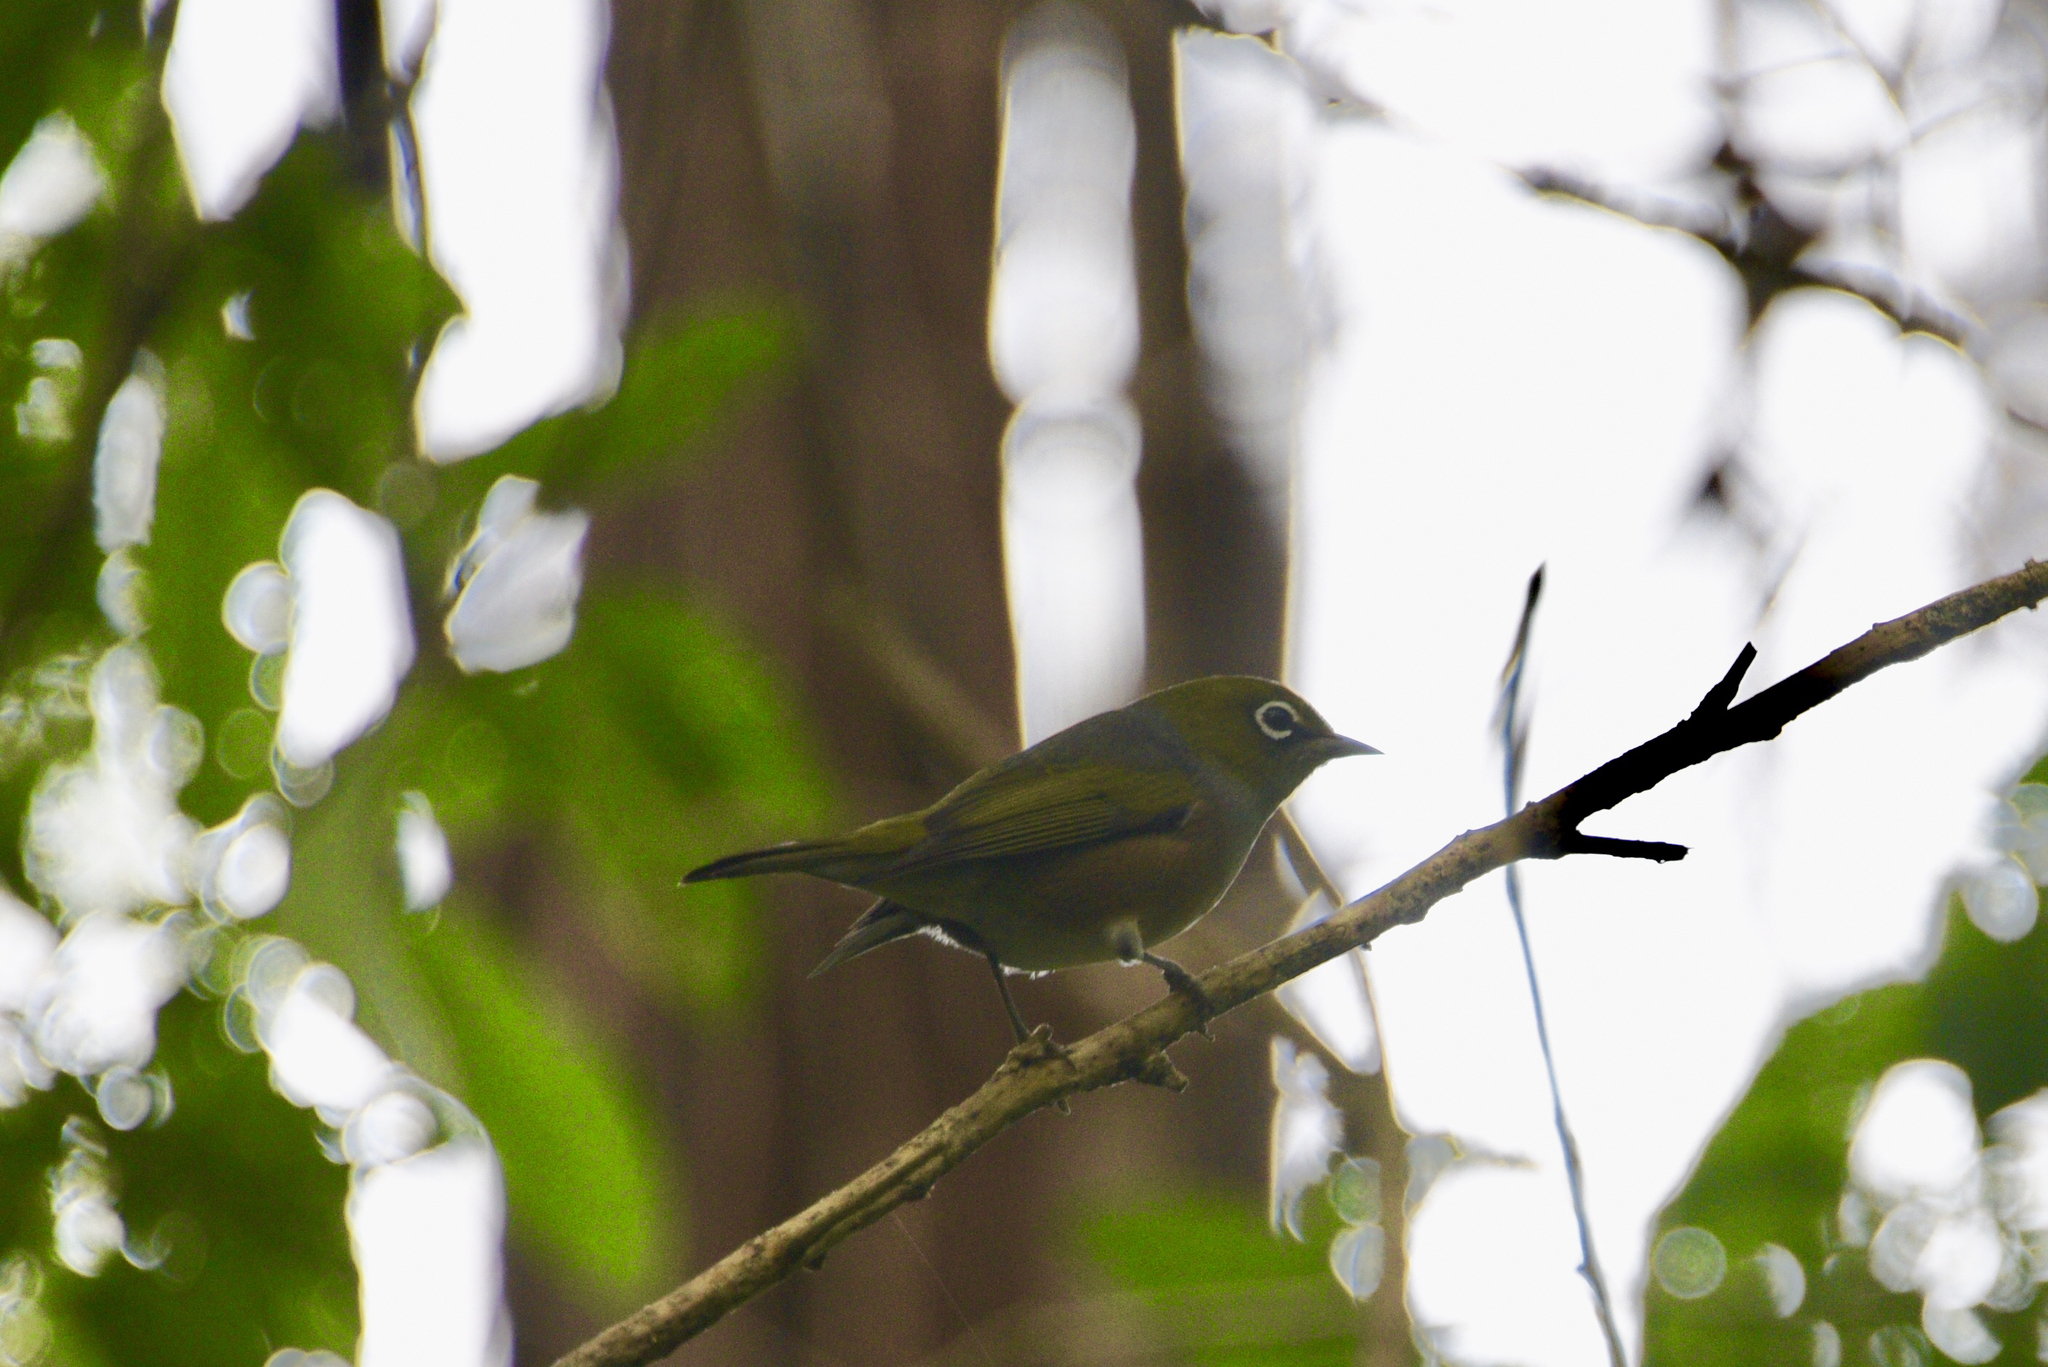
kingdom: Animalia
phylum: Chordata
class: Aves
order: Passeriformes
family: Zosteropidae
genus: Zosterops
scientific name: Zosterops lateralis
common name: Silvereye
